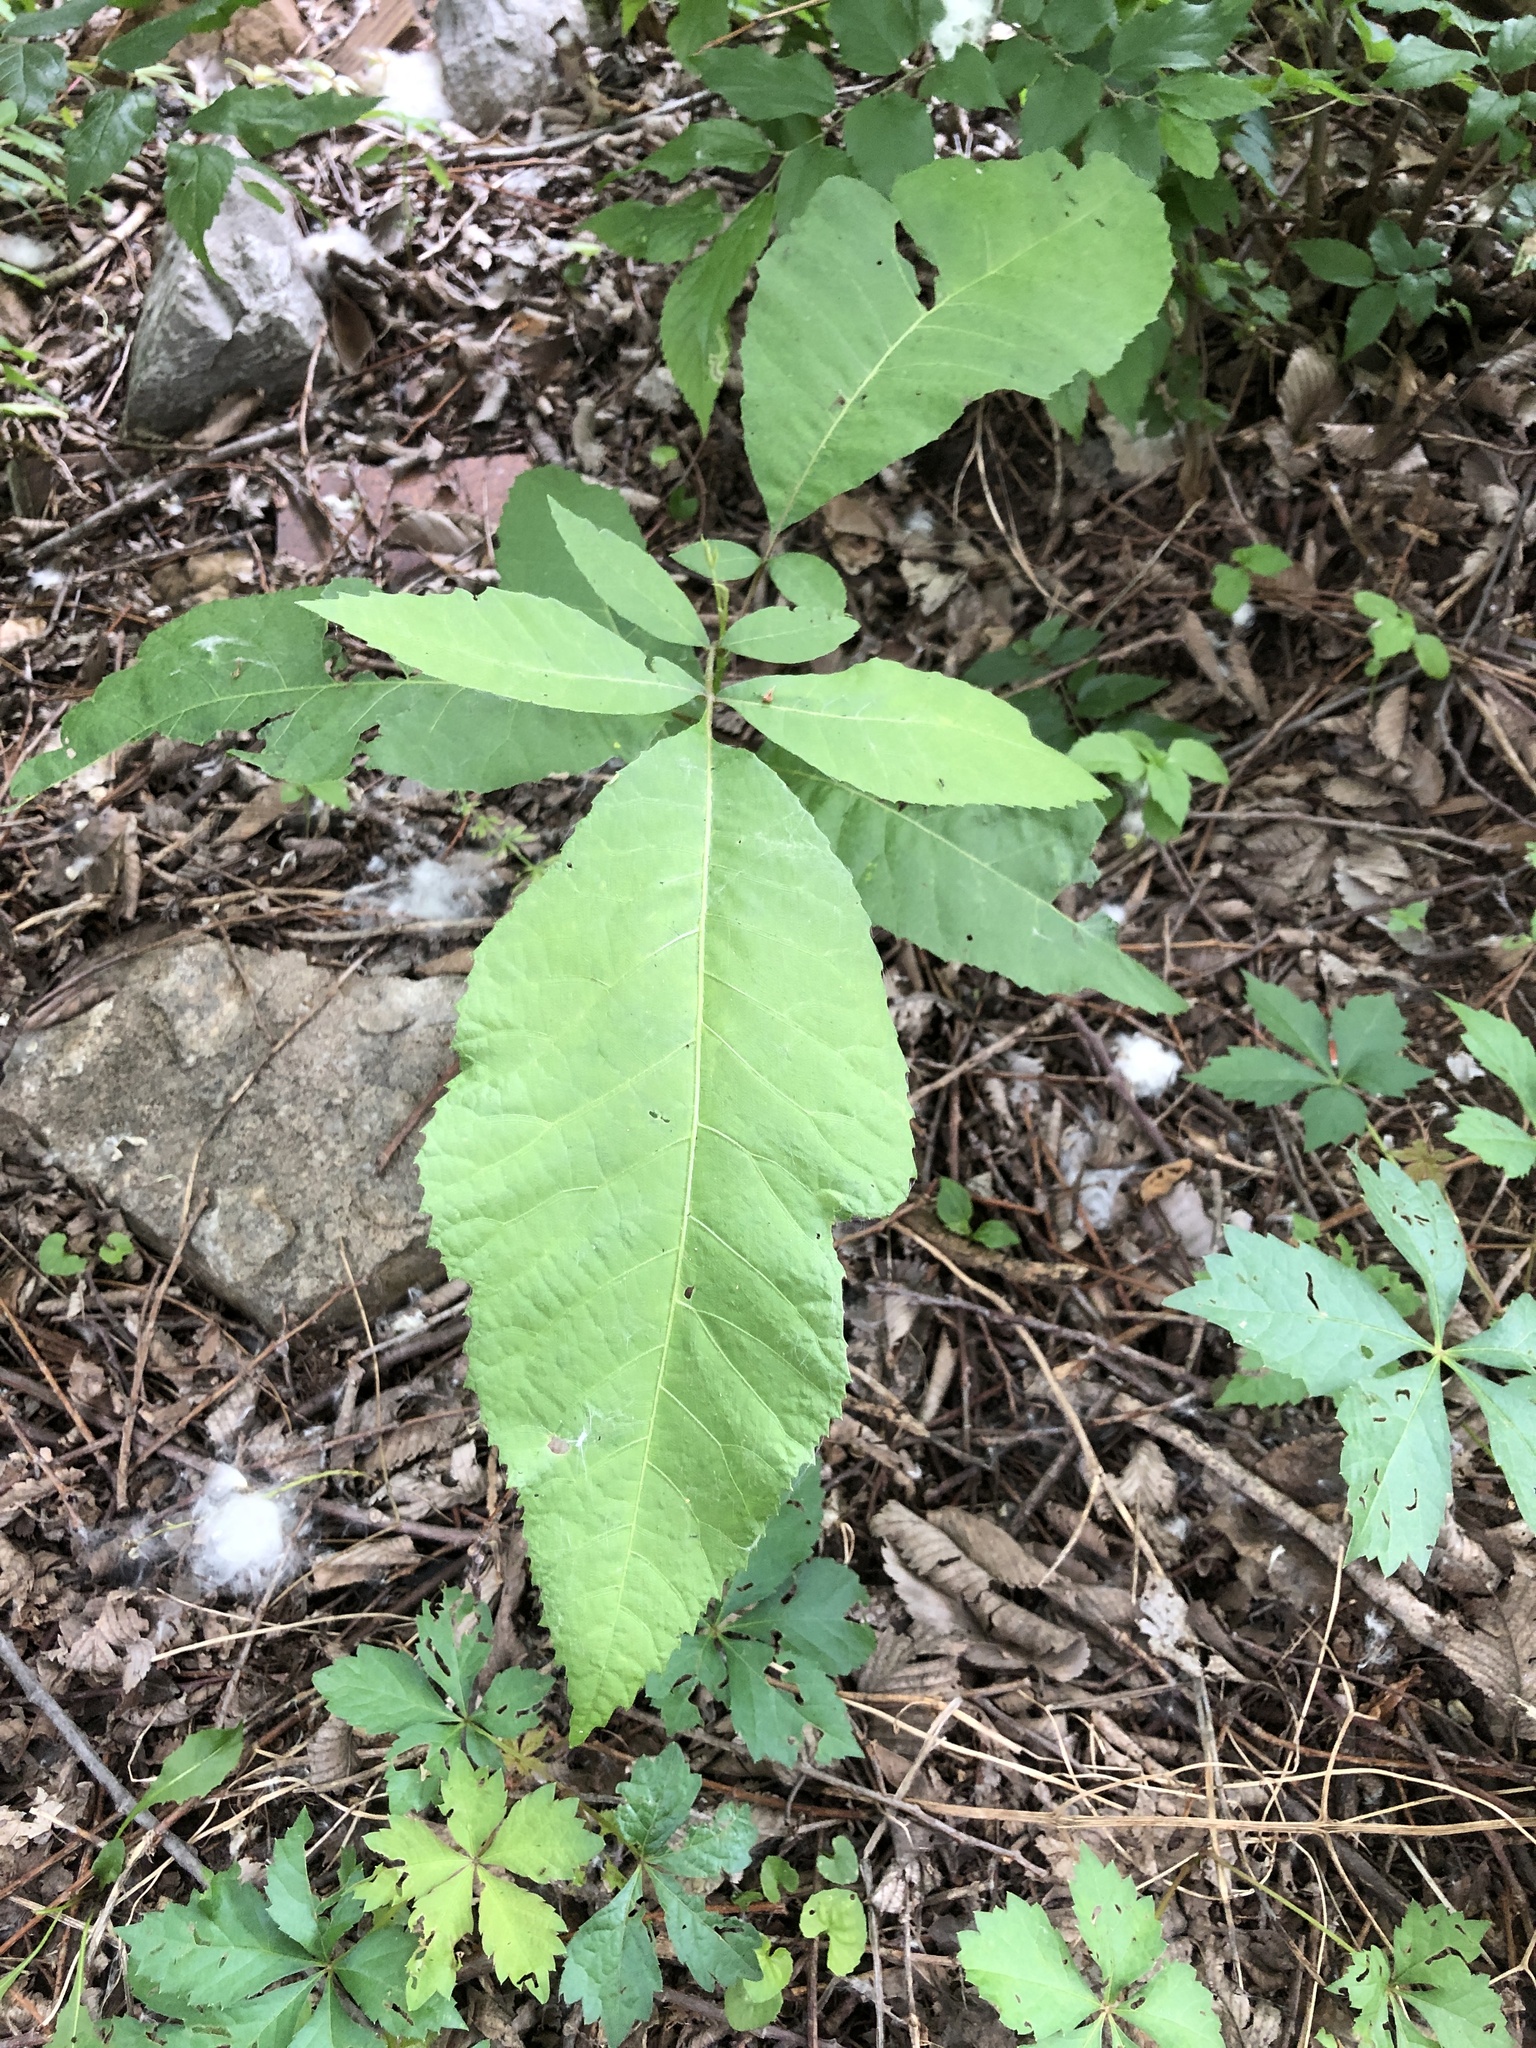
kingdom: Plantae
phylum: Tracheophyta
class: Magnoliopsida
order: Fagales
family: Juglandaceae
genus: Carya
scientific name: Carya illinoinensis
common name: Pecan
